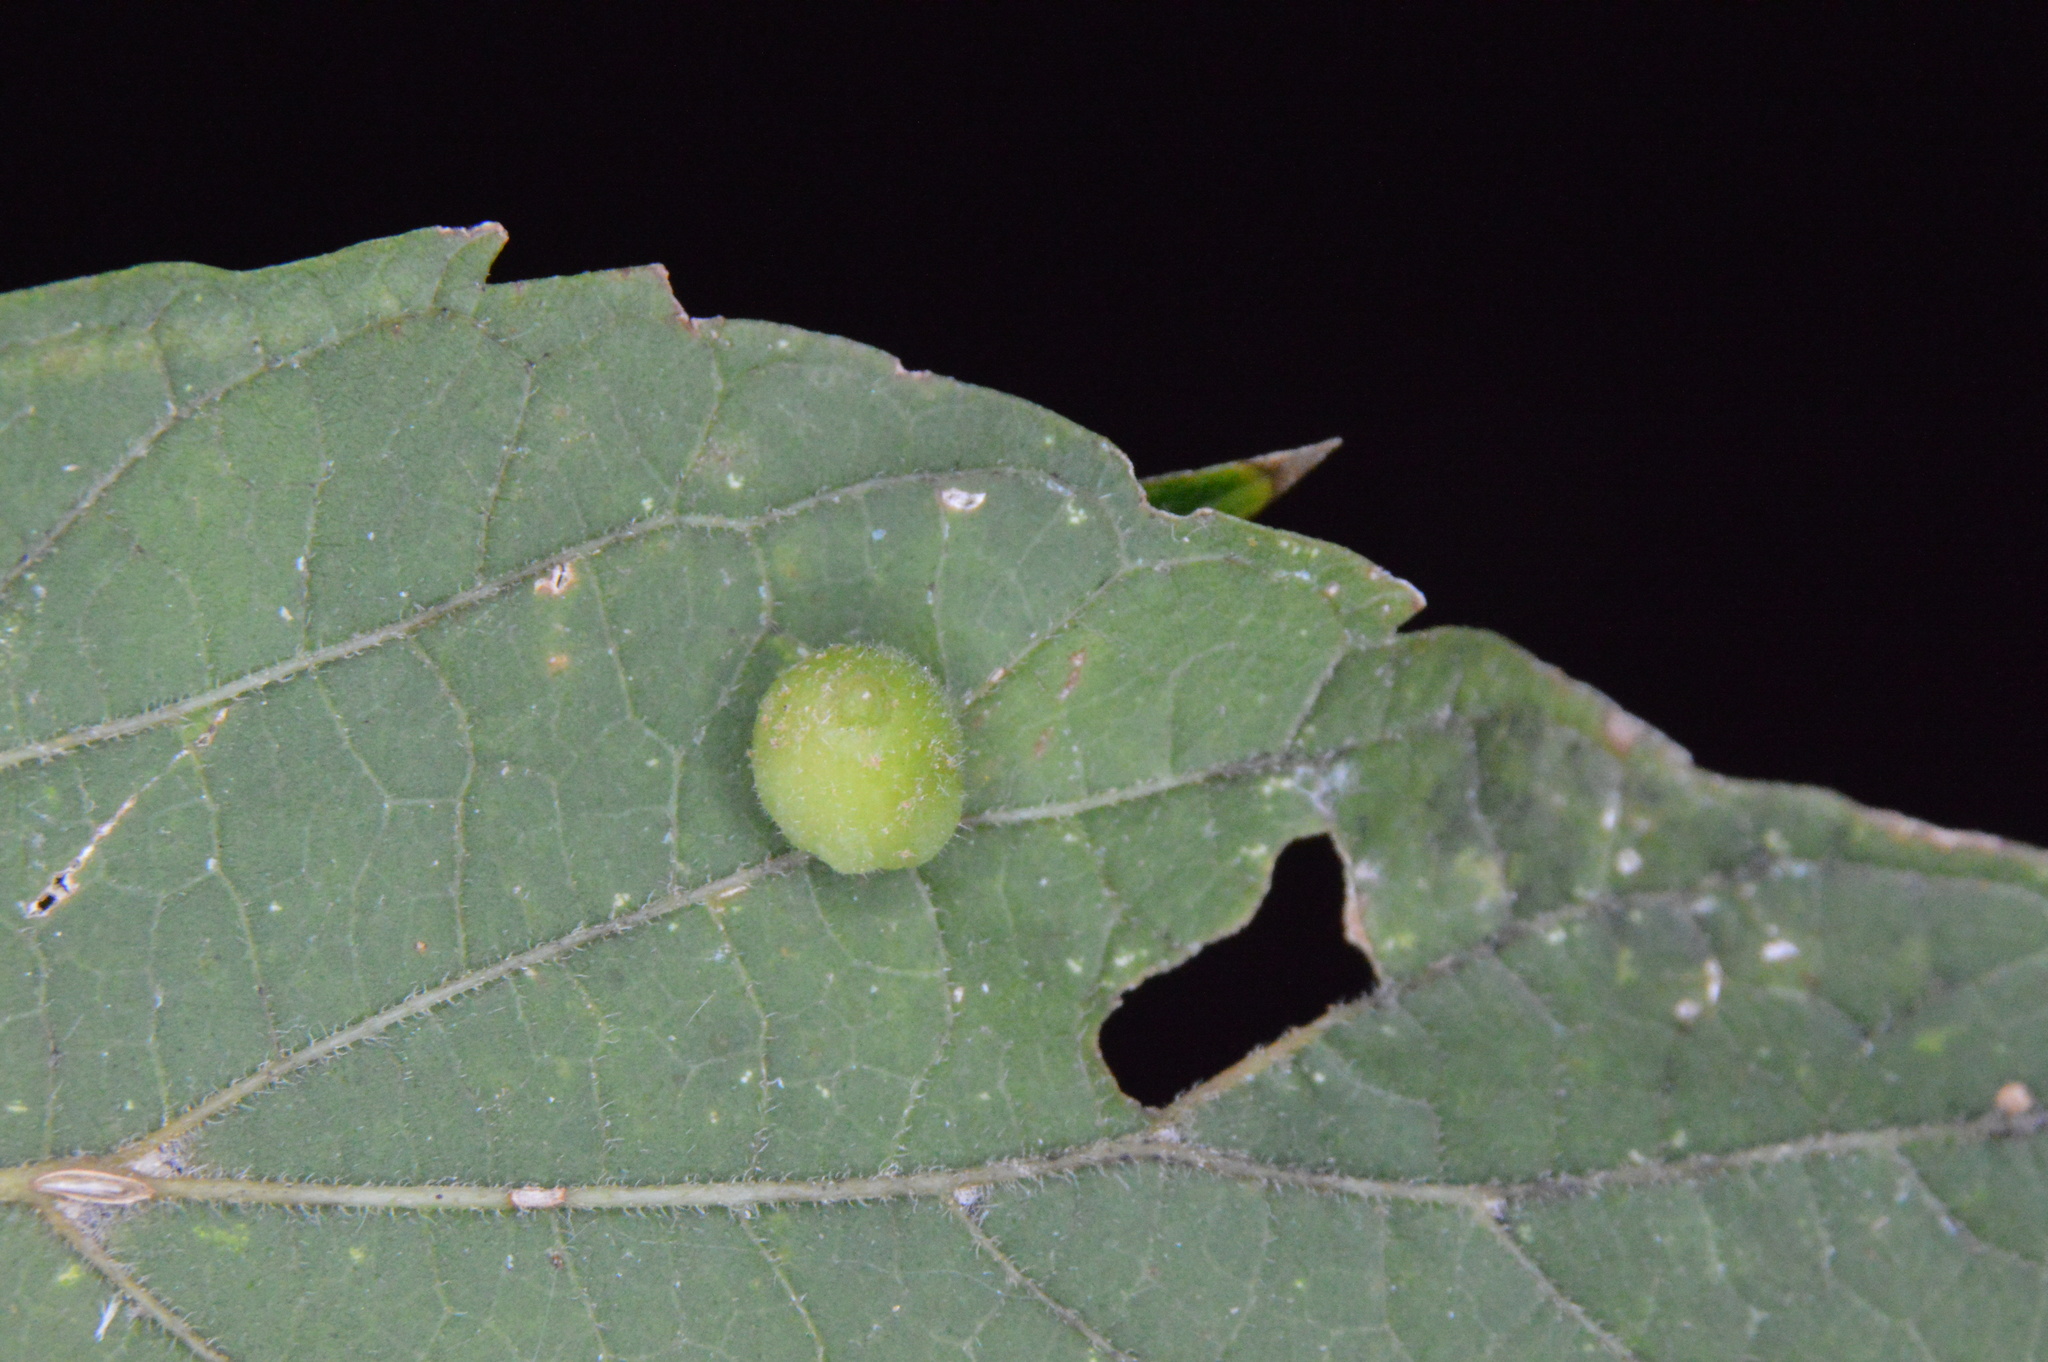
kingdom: Animalia
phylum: Arthropoda
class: Insecta
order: Diptera
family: Cecidomyiidae
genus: Celticecis
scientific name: Celticecis globosa
